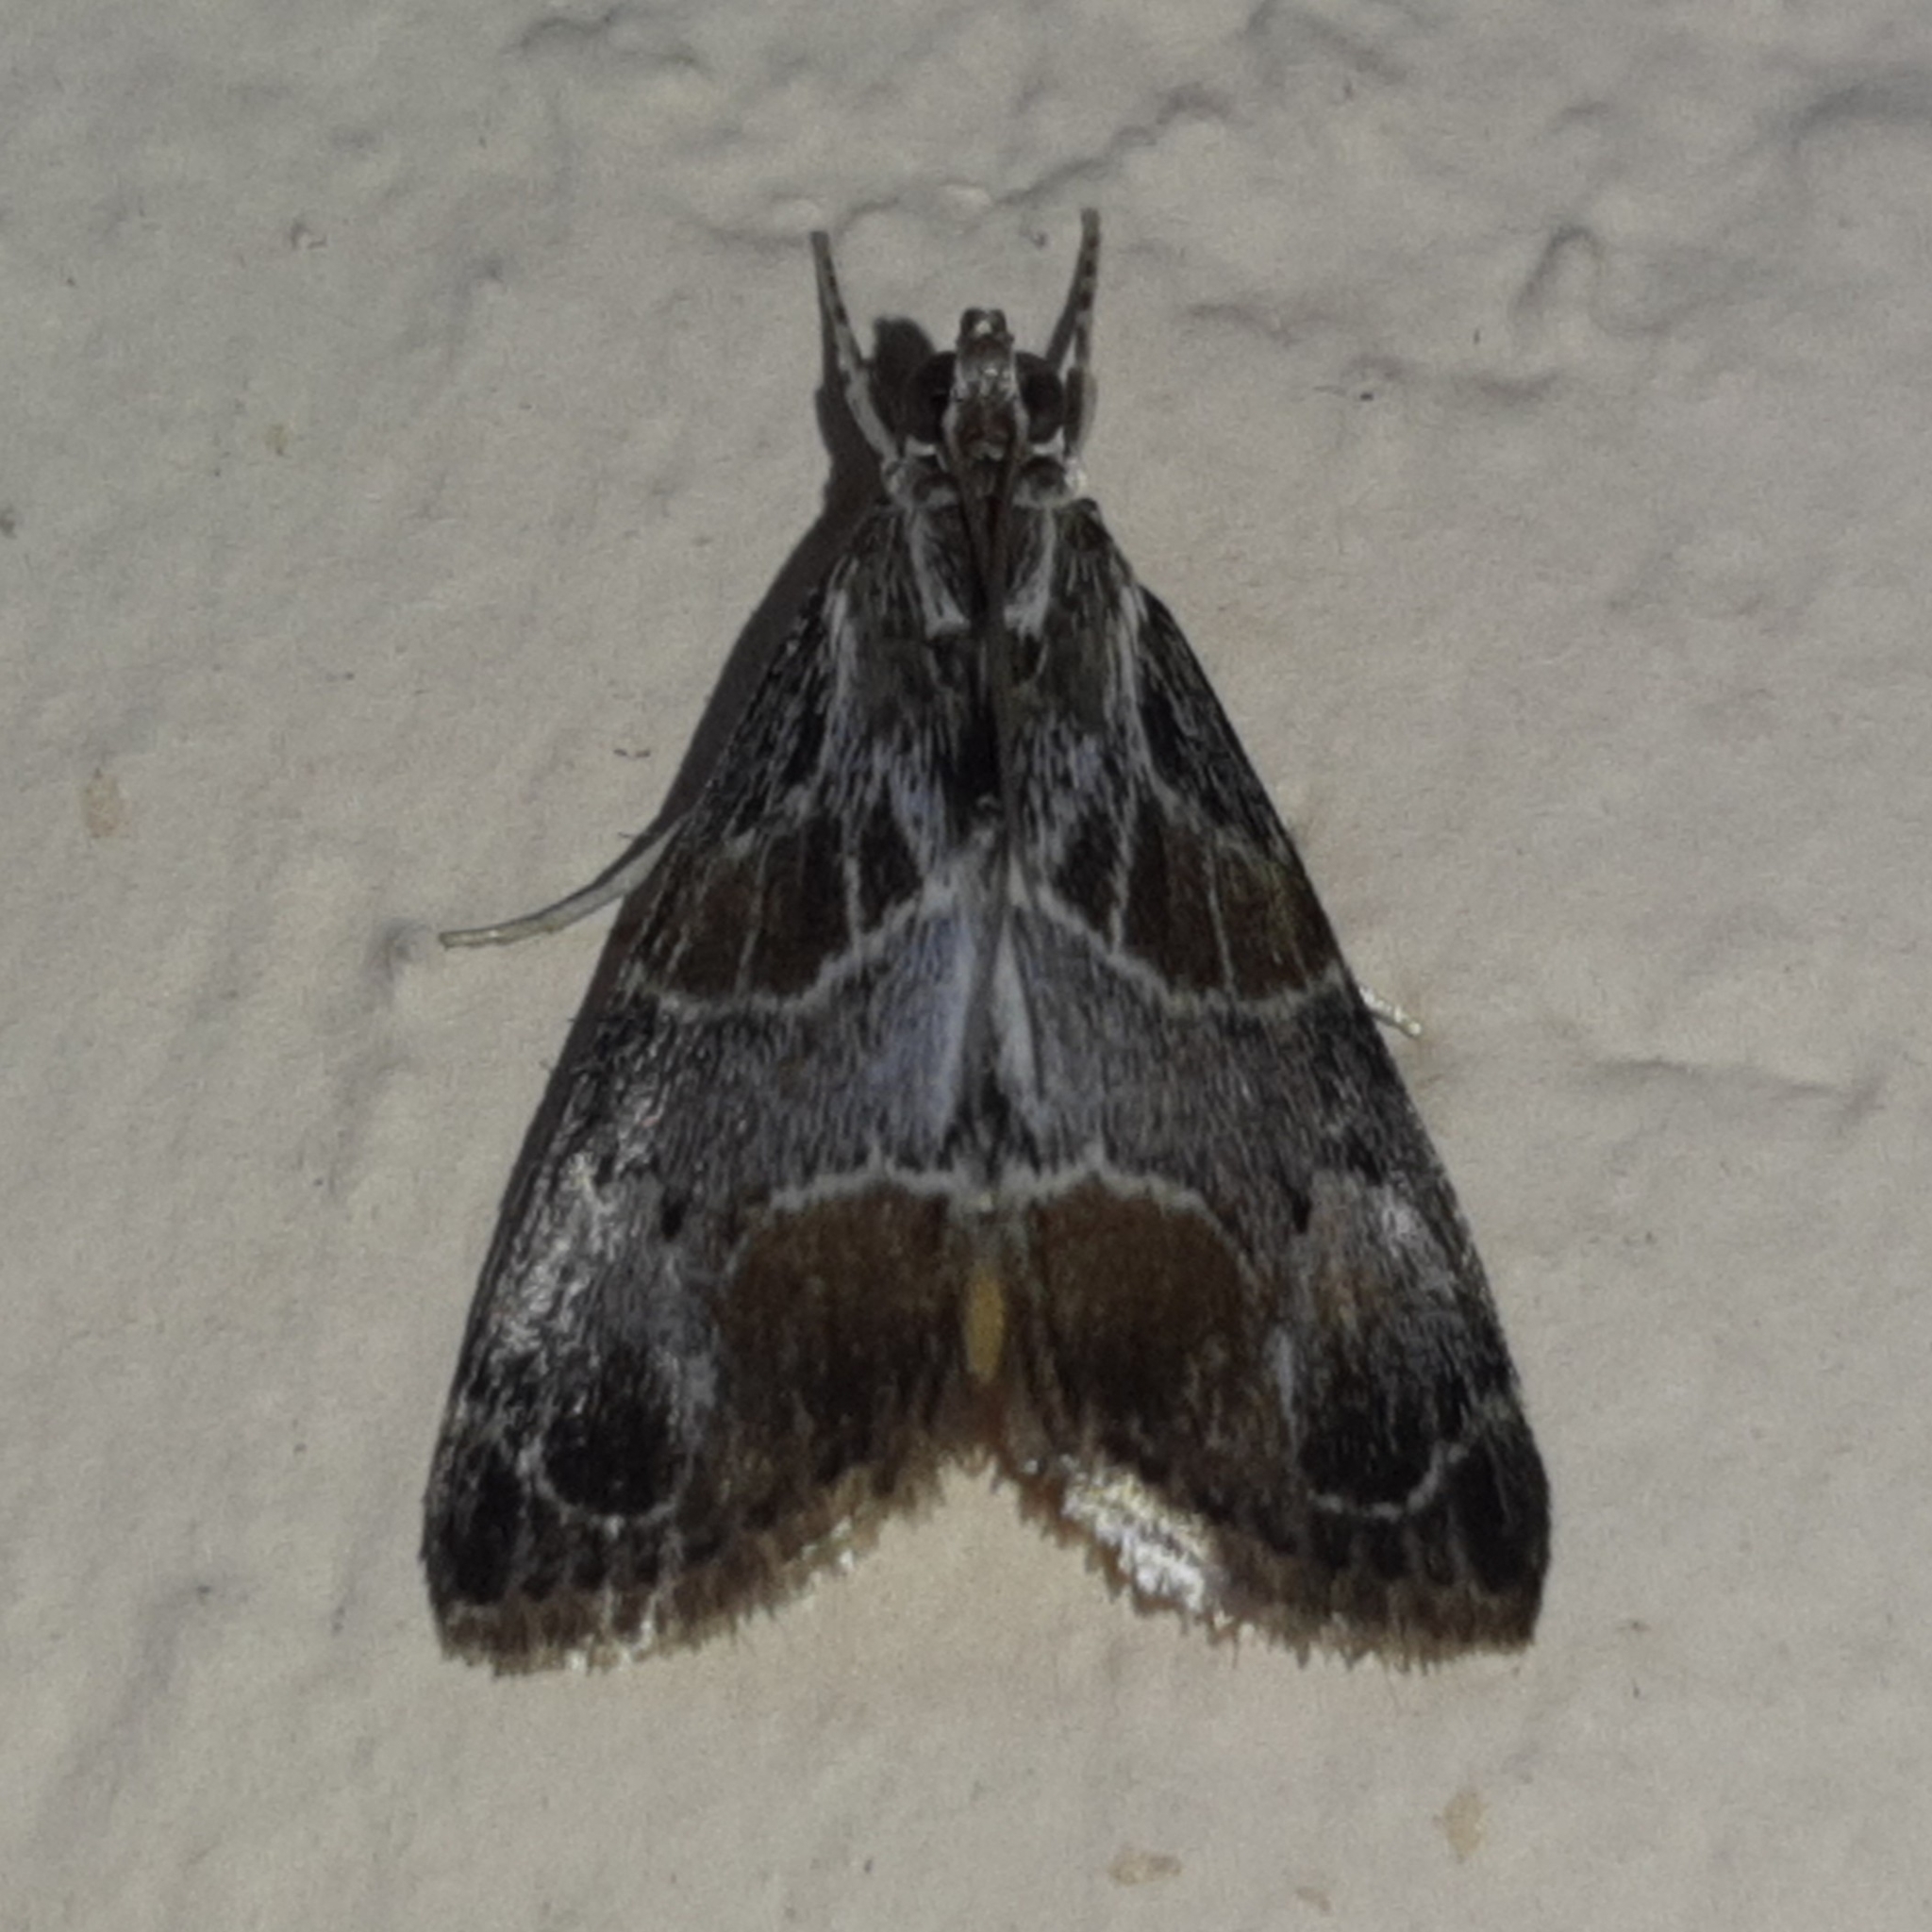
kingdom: Animalia
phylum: Arthropoda
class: Insecta
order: Lepidoptera
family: Crambidae
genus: Eupoca
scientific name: Eupoca bifascialis
